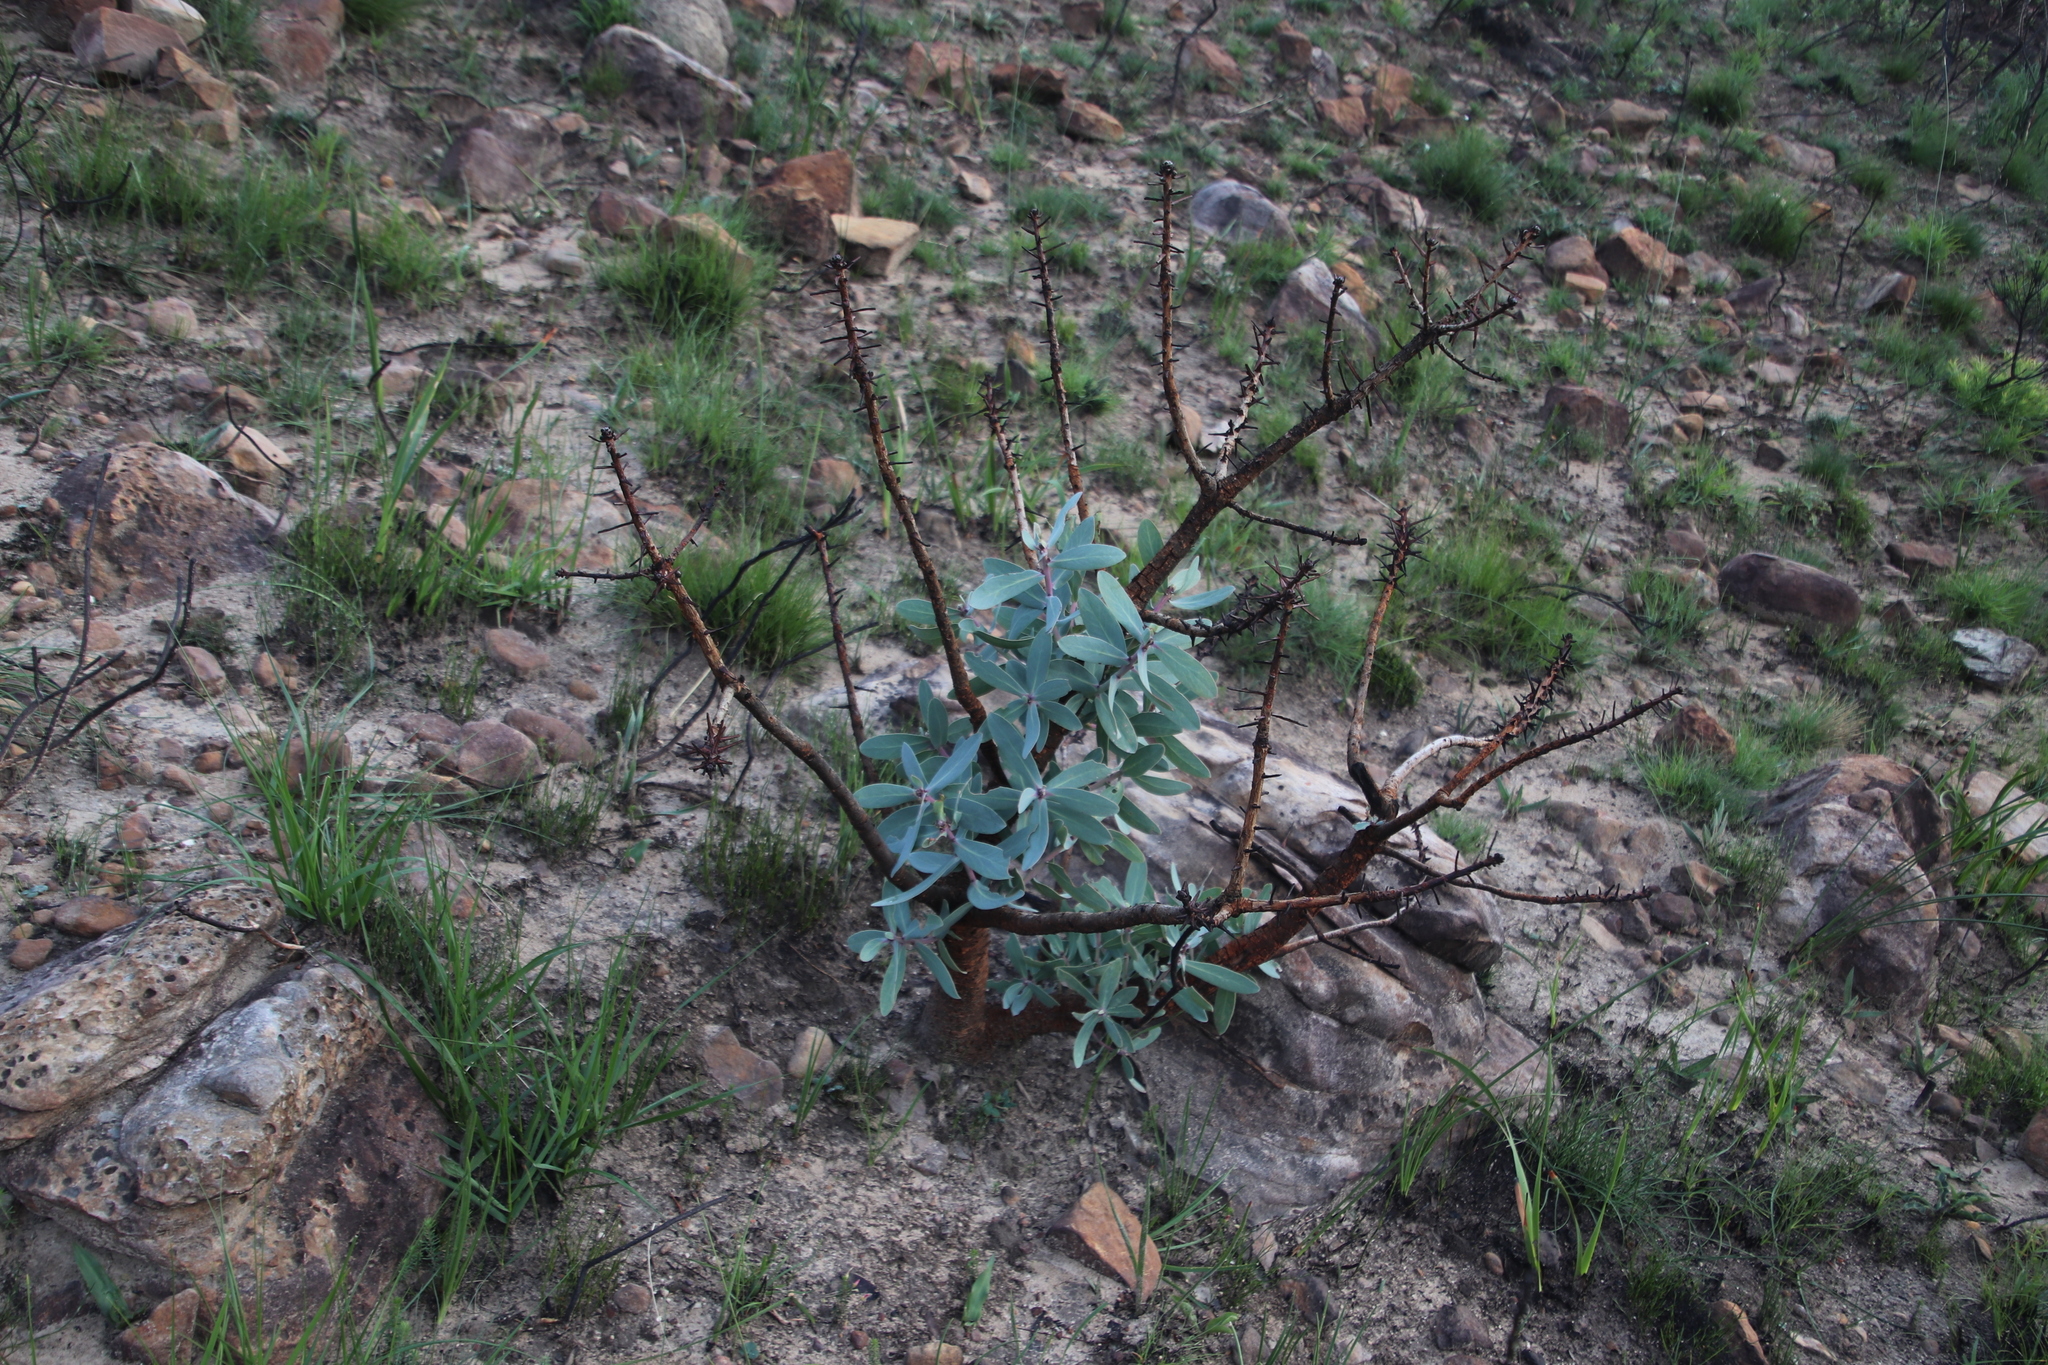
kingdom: Plantae
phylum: Tracheophyta
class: Magnoliopsida
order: Proteales
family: Proteaceae
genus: Protea
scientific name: Protea nitida
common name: Tree protea
